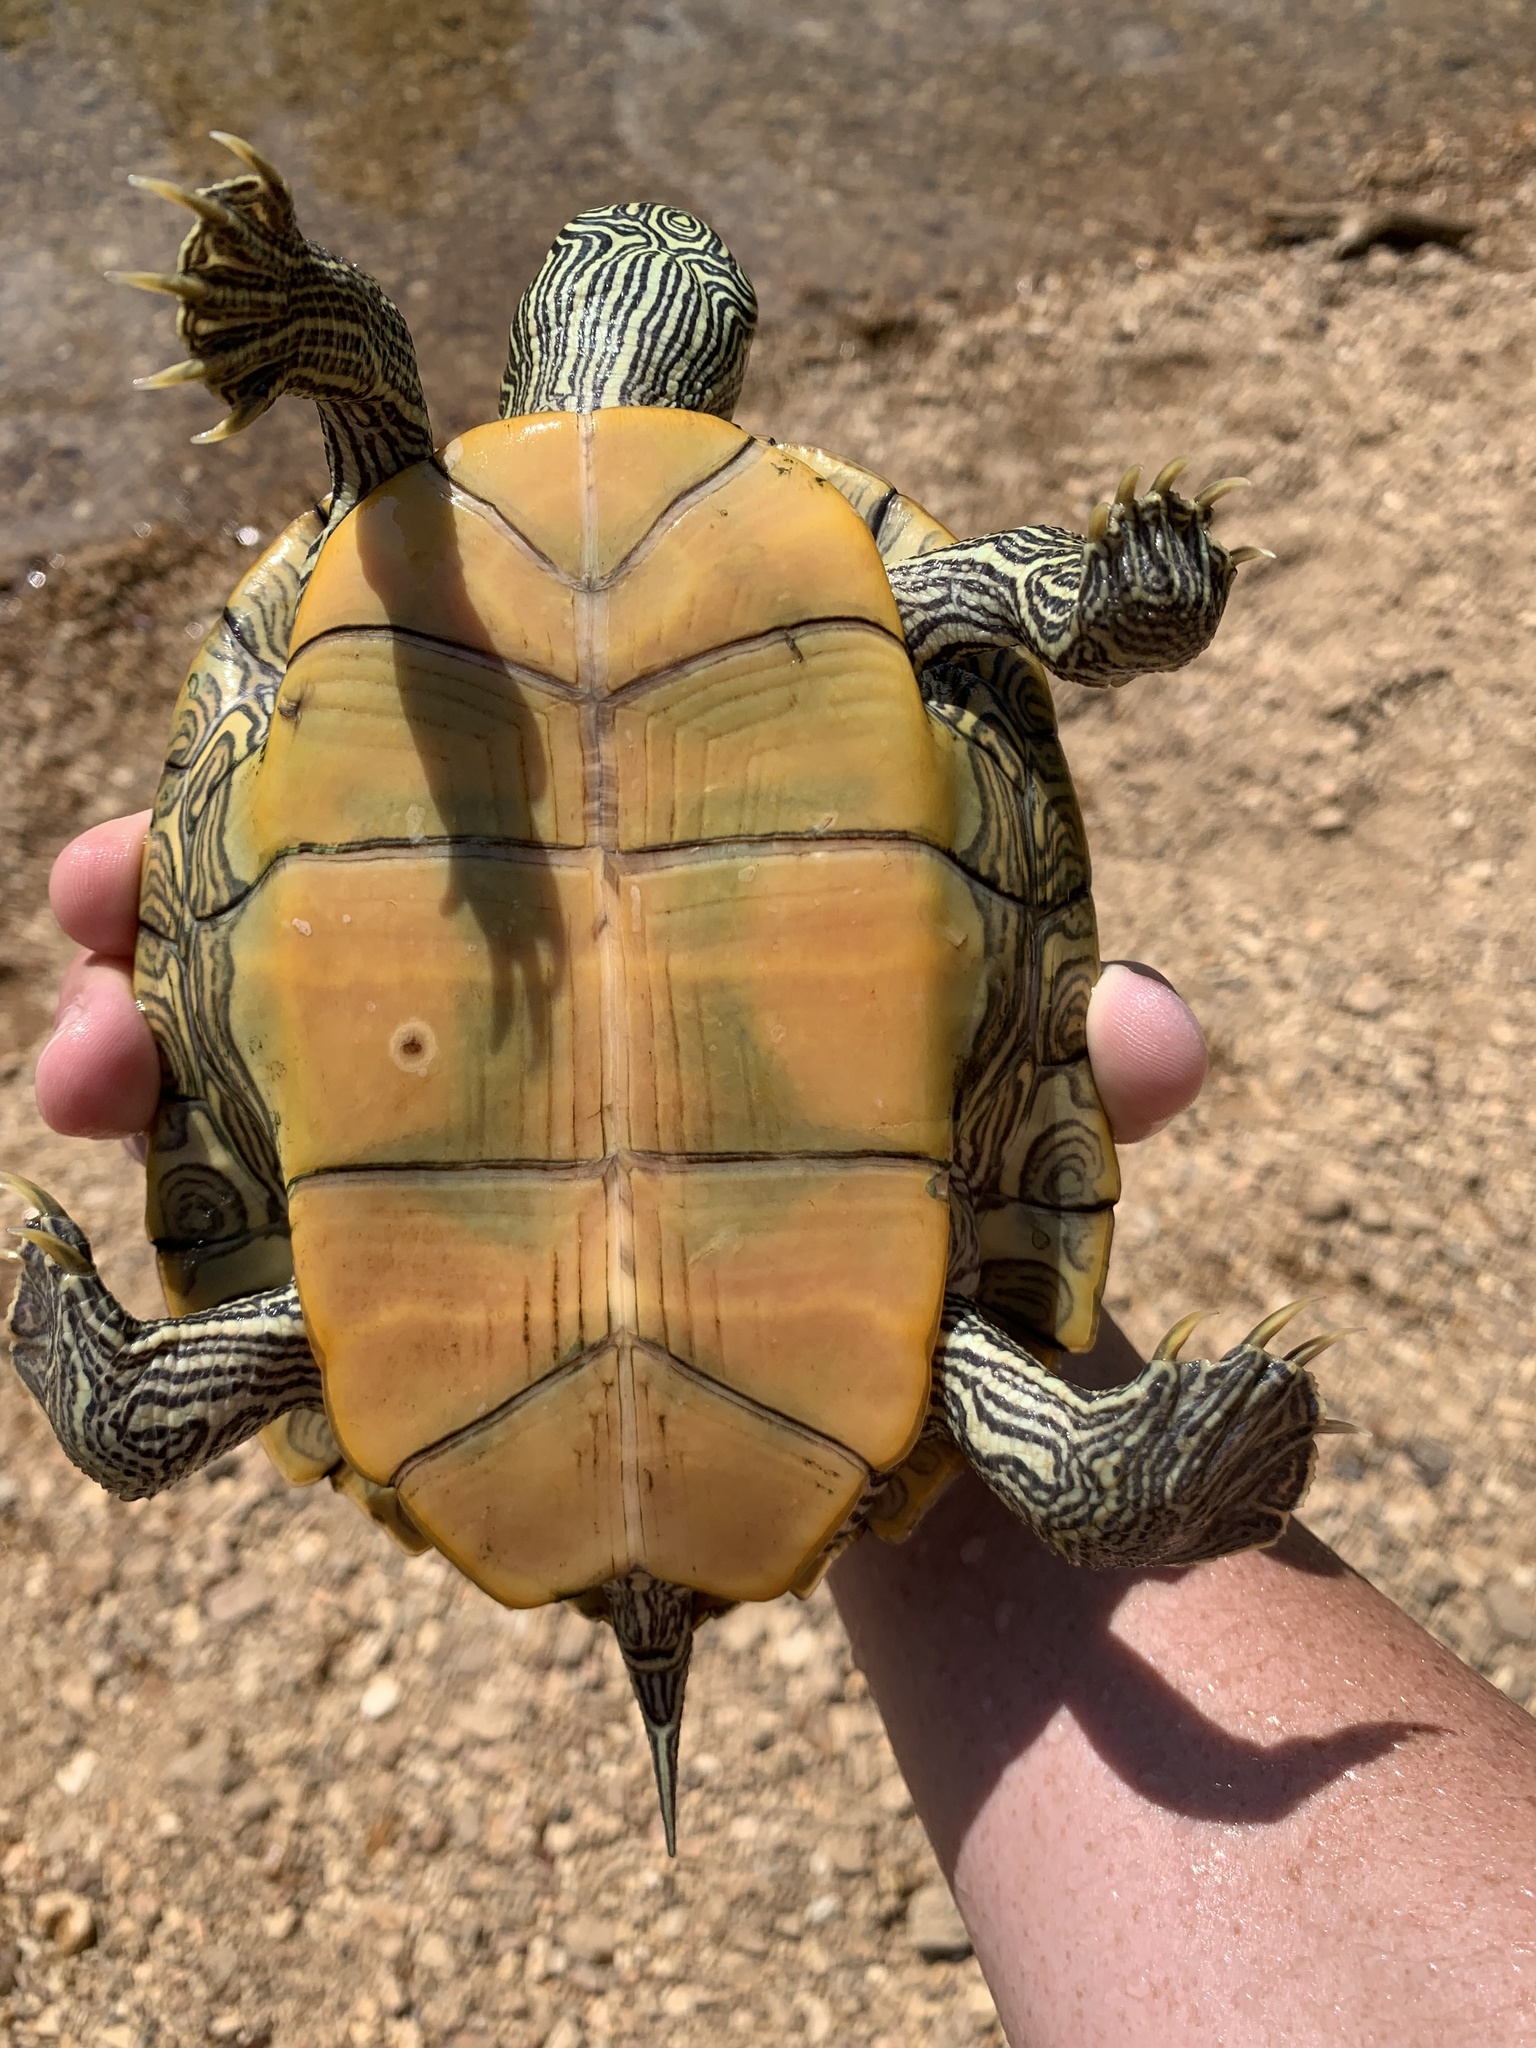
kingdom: Animalia
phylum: Chordata
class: Testudines
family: Emydidae
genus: Graptemys
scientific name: Graptemys geographica
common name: Common map turtle
